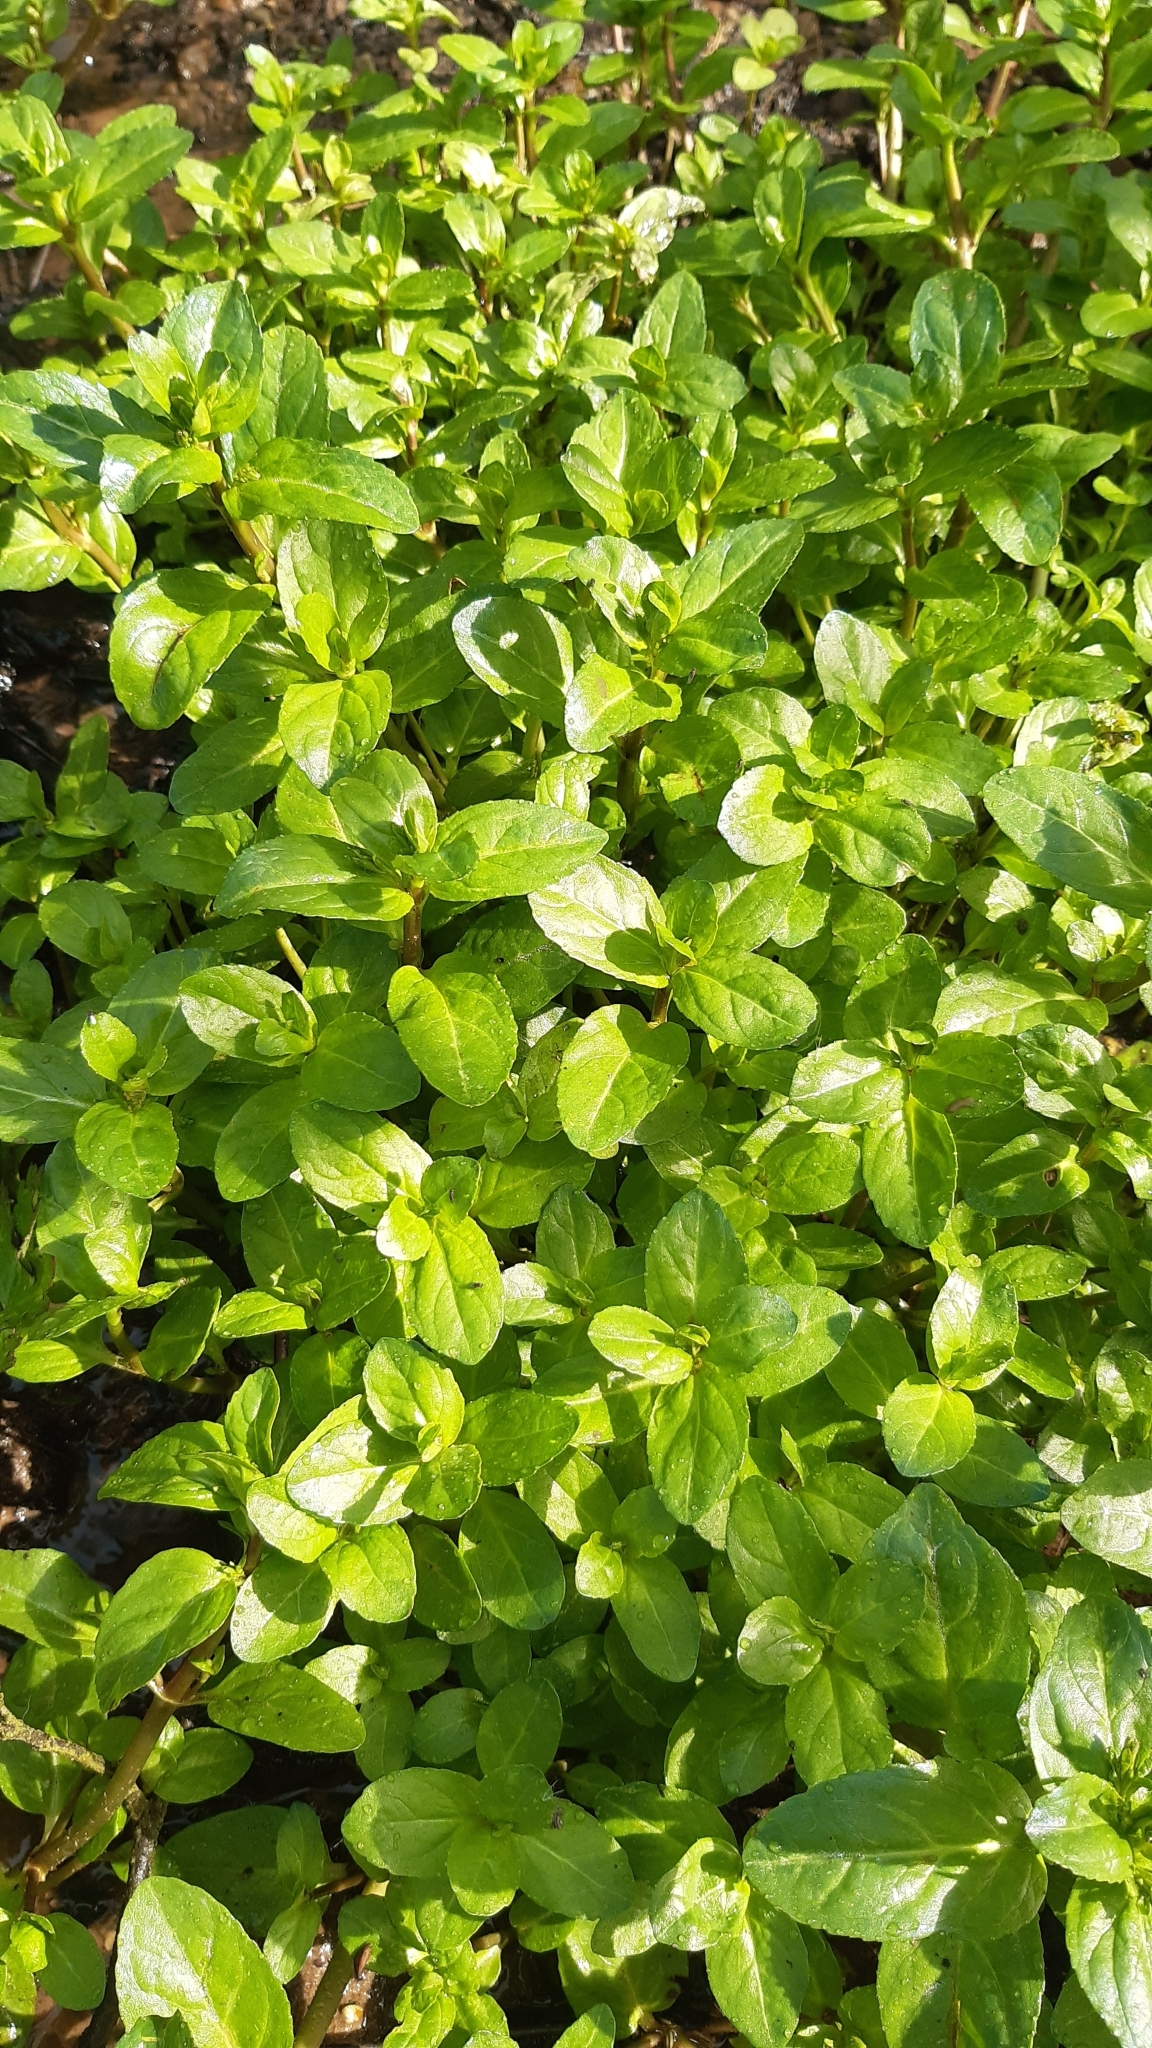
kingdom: Plantae
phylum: Tracheophyta
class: Magnoliopsida
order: Lamiales
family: Plantaginaceae
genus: Veronica
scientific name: Veronica beccabunga
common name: Brooklime
